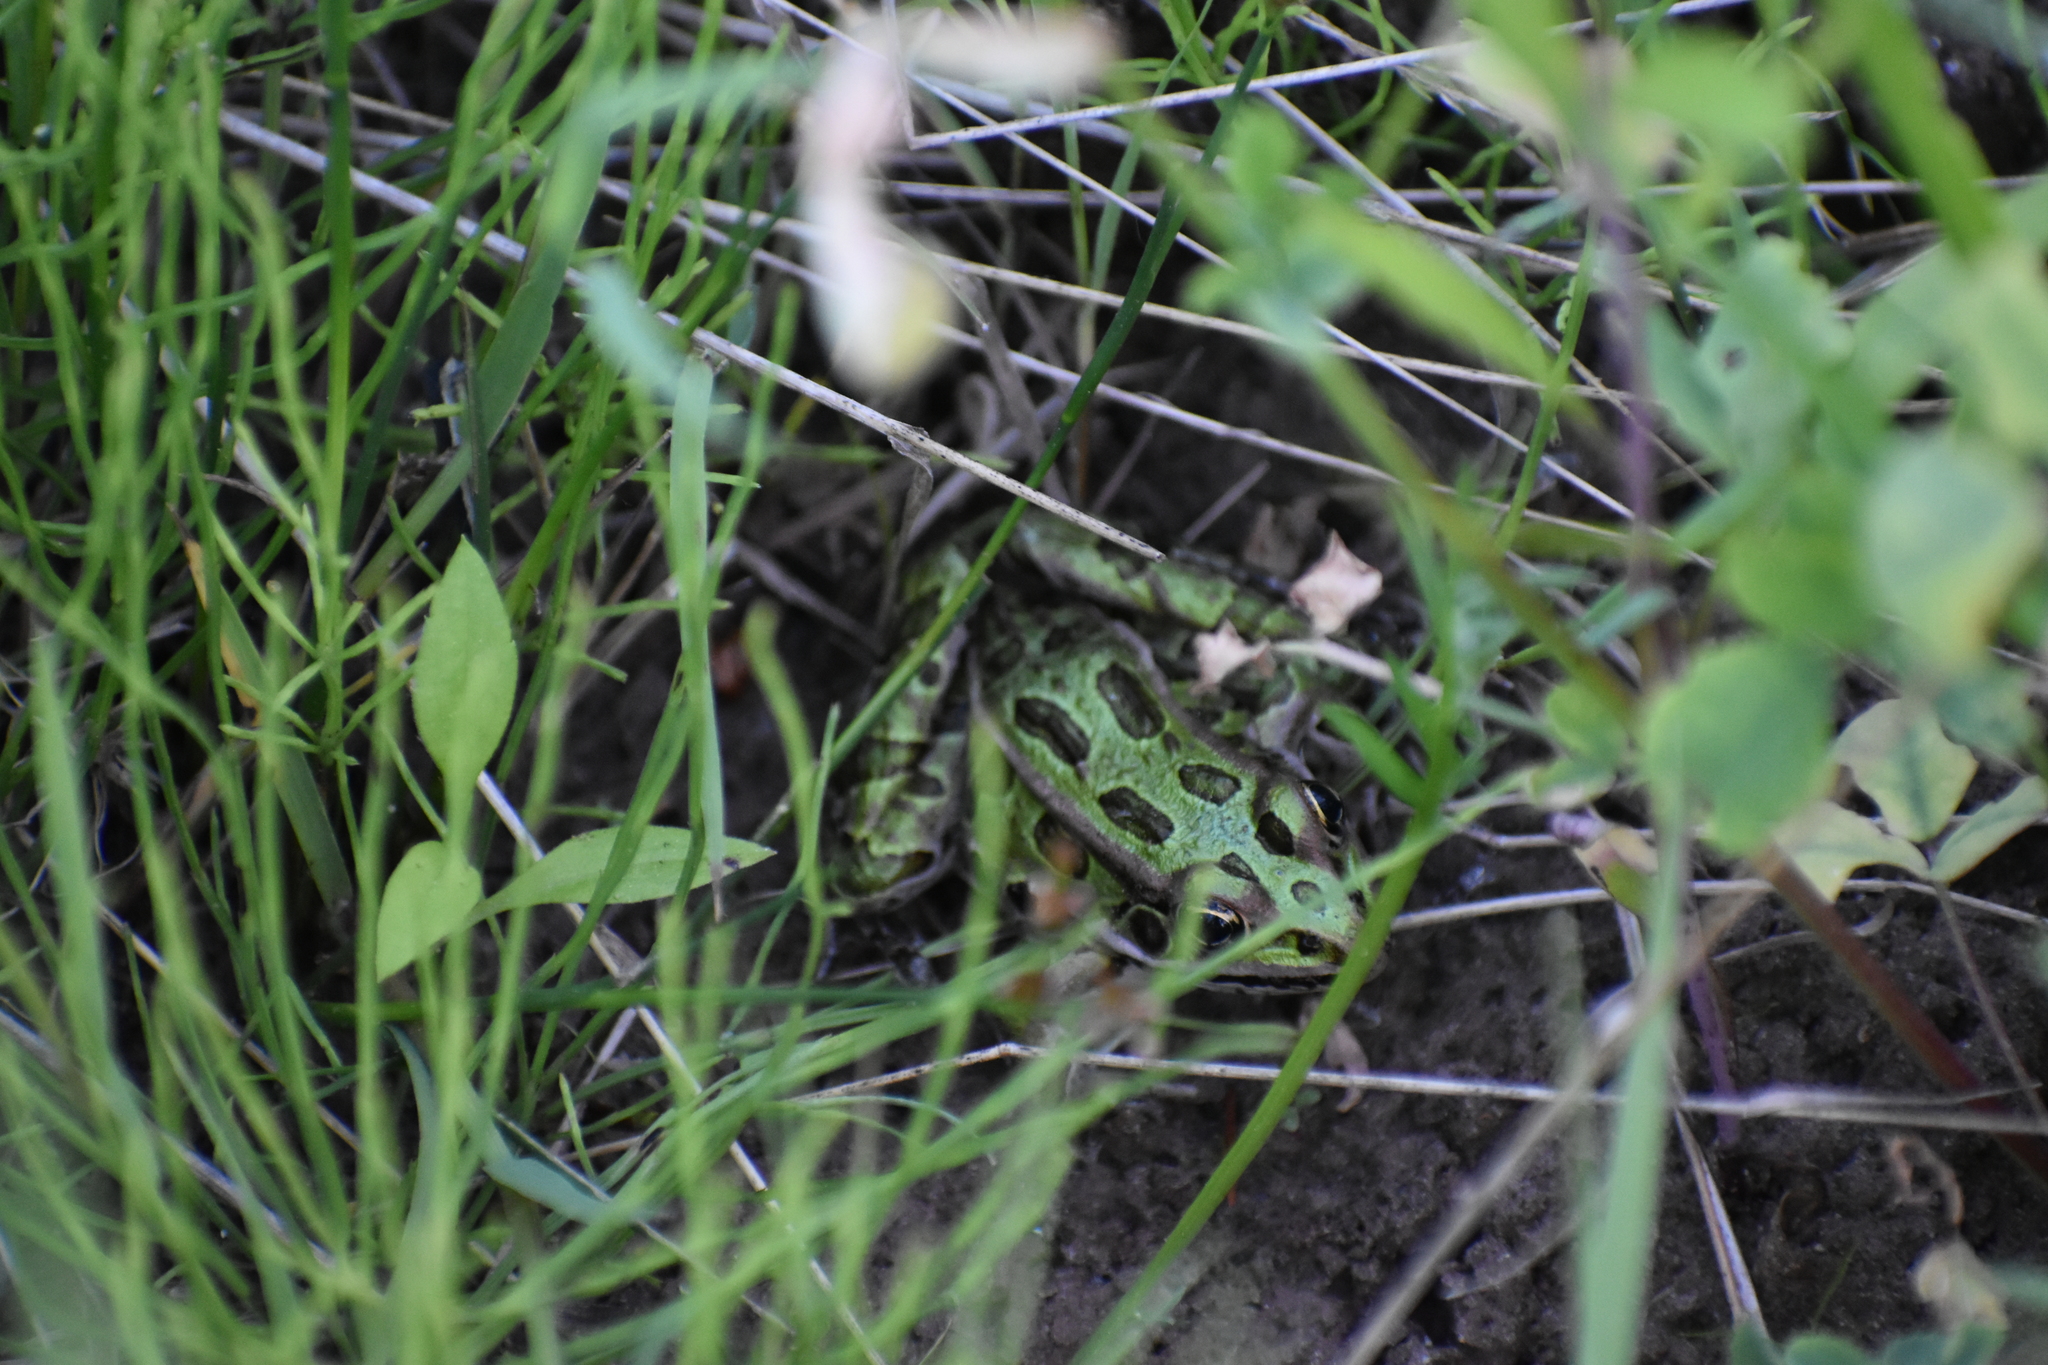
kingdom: Animalia
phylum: Chordata
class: Amphibia
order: Anura
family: Ranidae
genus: Lithobates
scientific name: Lithobates pipiens
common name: Northern leopard frog
